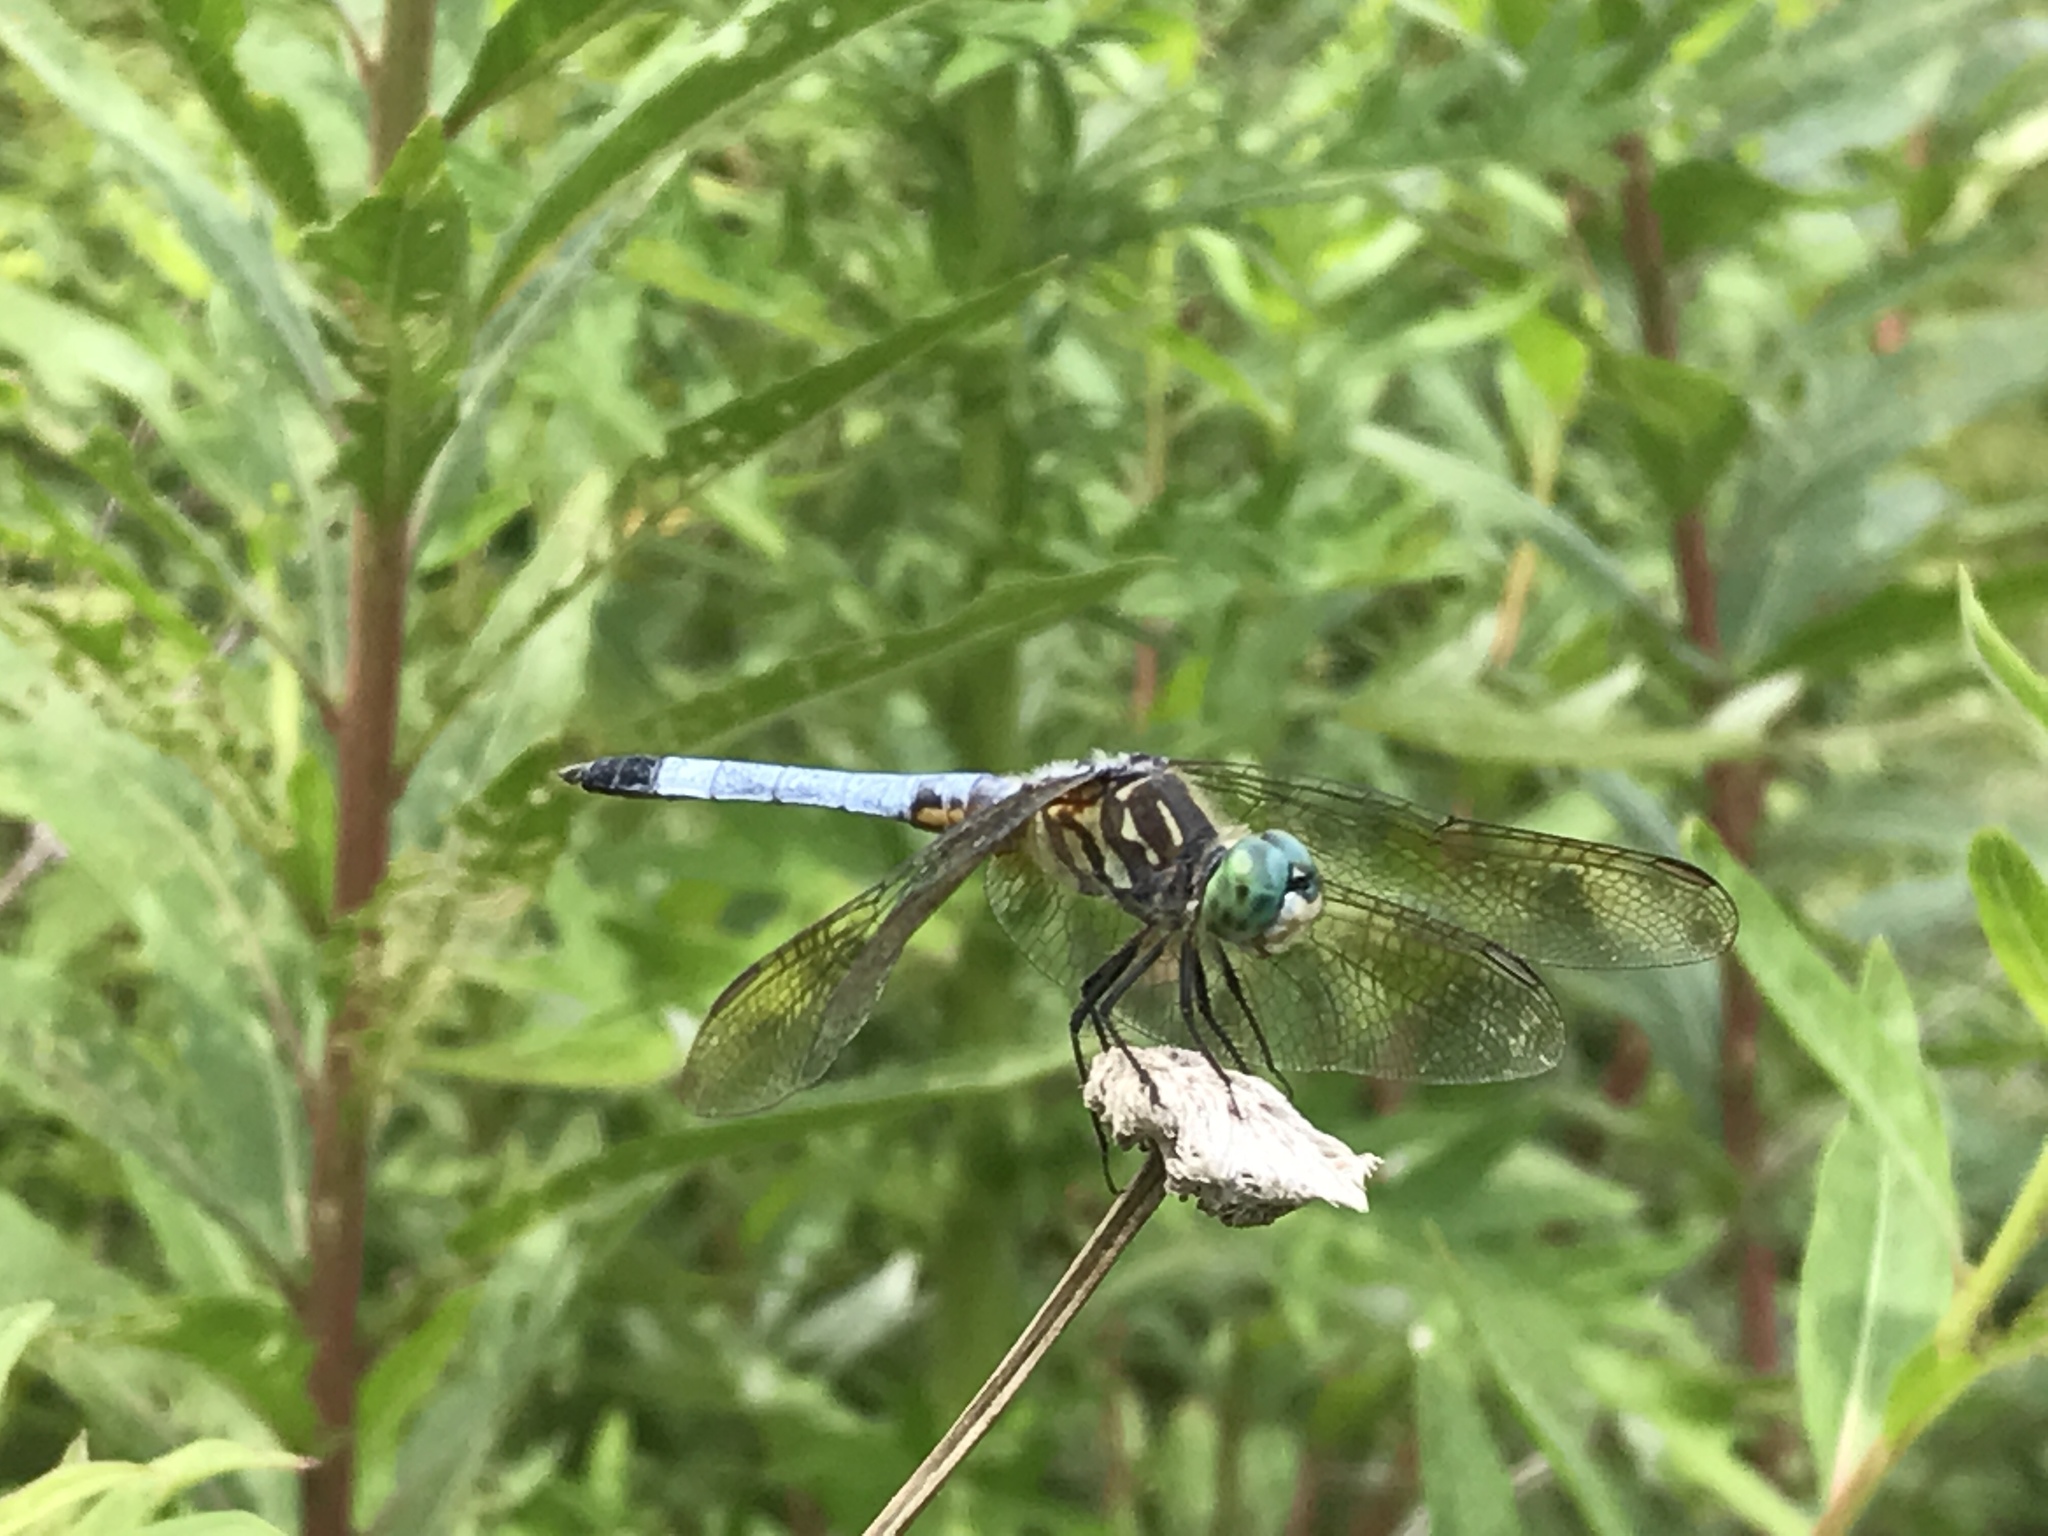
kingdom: Animalia
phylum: Arthropoda
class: Insecta
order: Odonata
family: Libellulidae
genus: Pachydiplax
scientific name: Pachydiplax longipennis
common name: Blue dasher
